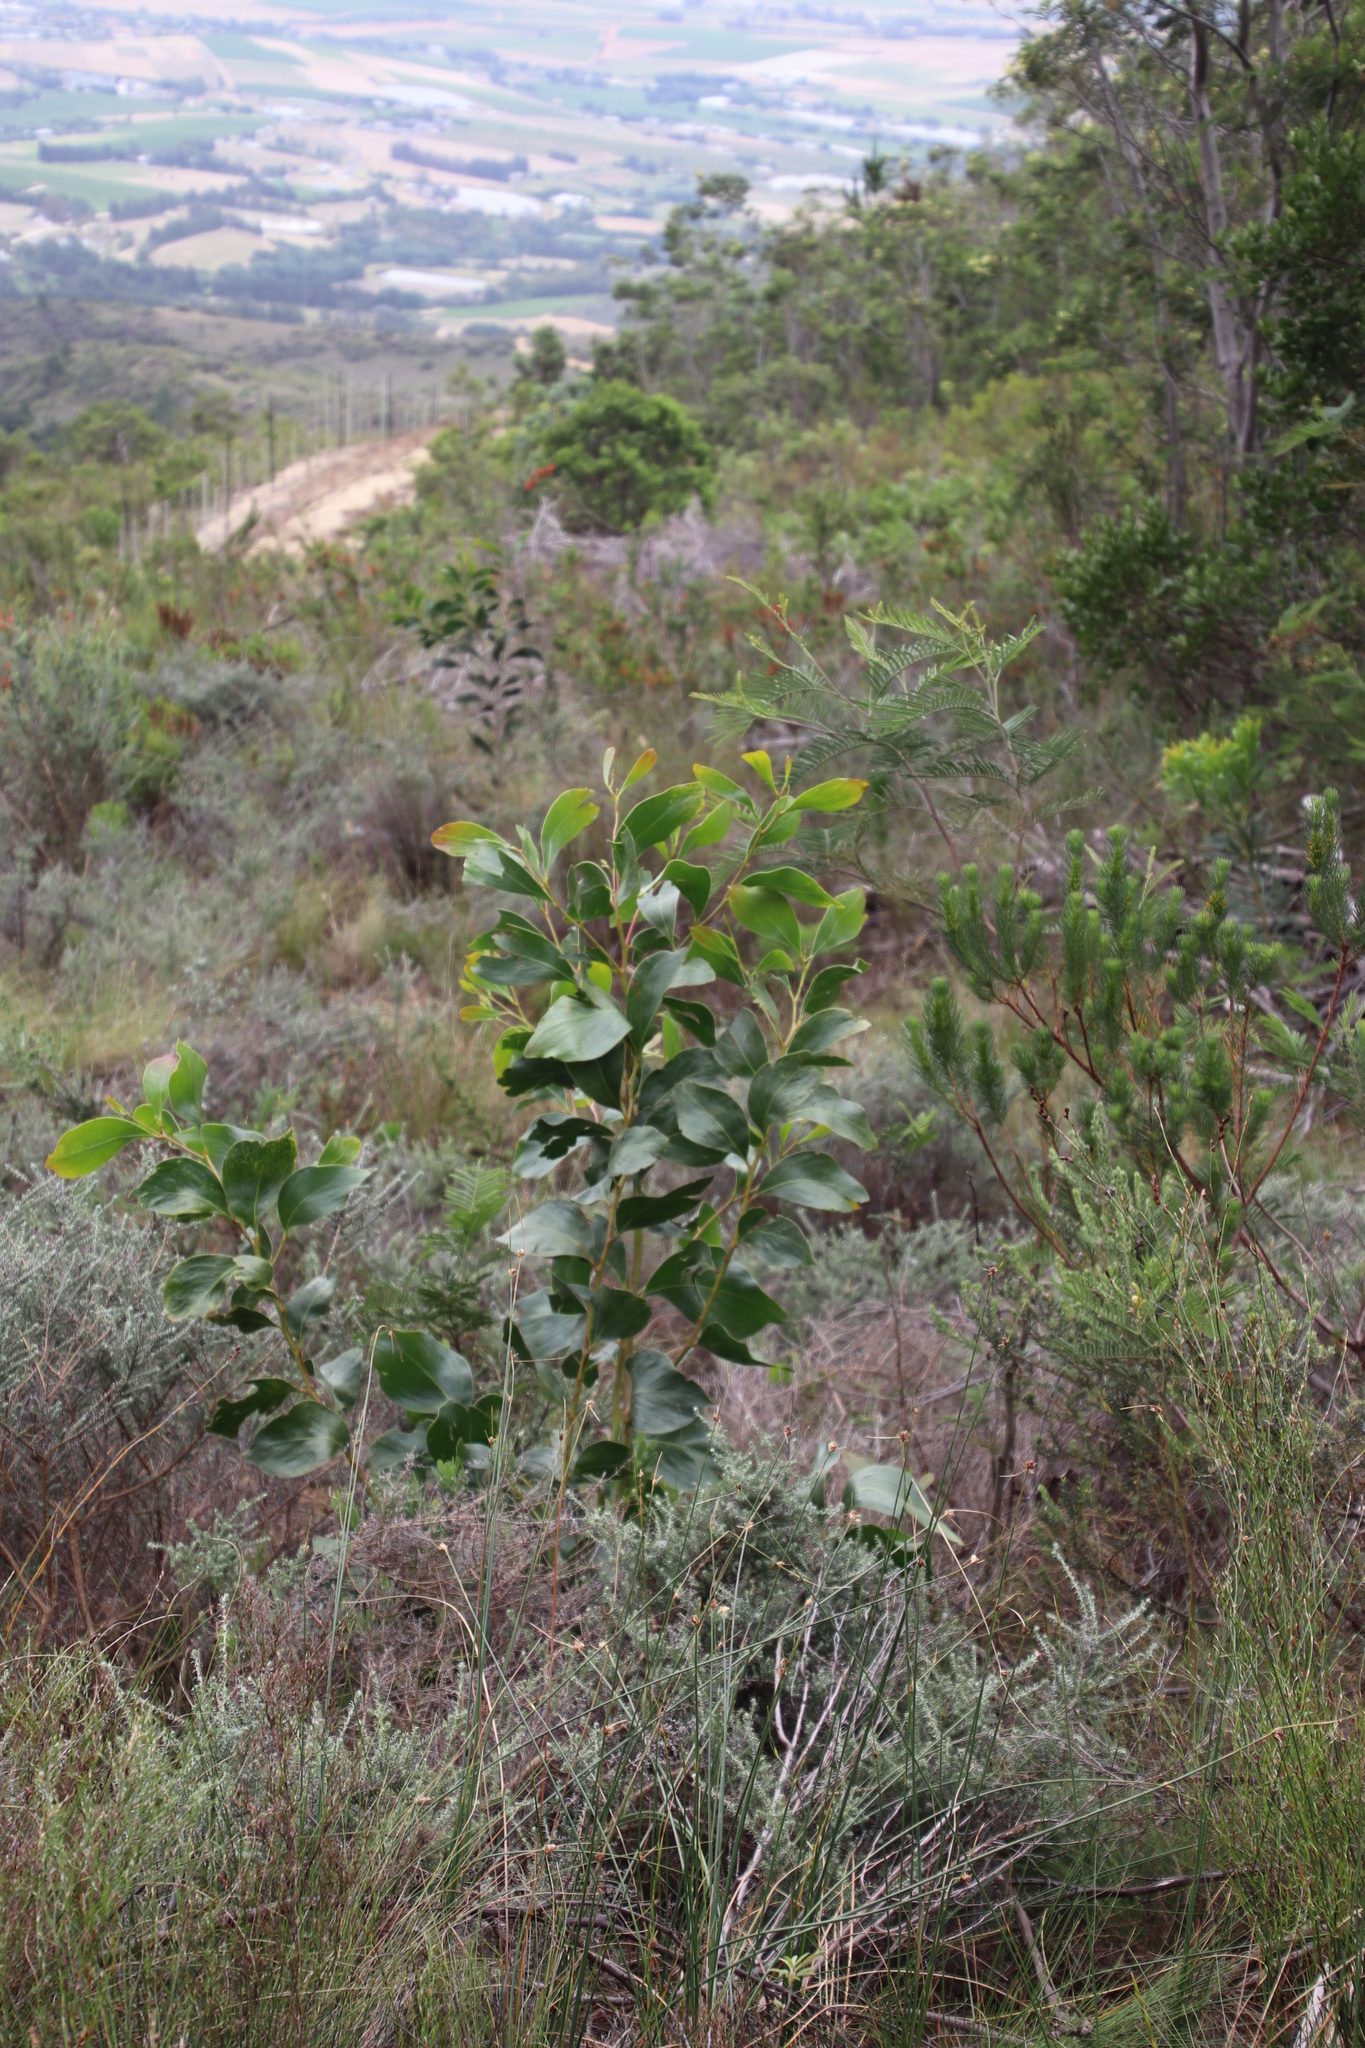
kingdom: Plantae
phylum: Tracheophyta
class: Magnoliopsida
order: Fabales
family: Fabaceae
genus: Acacia
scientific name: Acacia pycnantha
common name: Golden wattle
